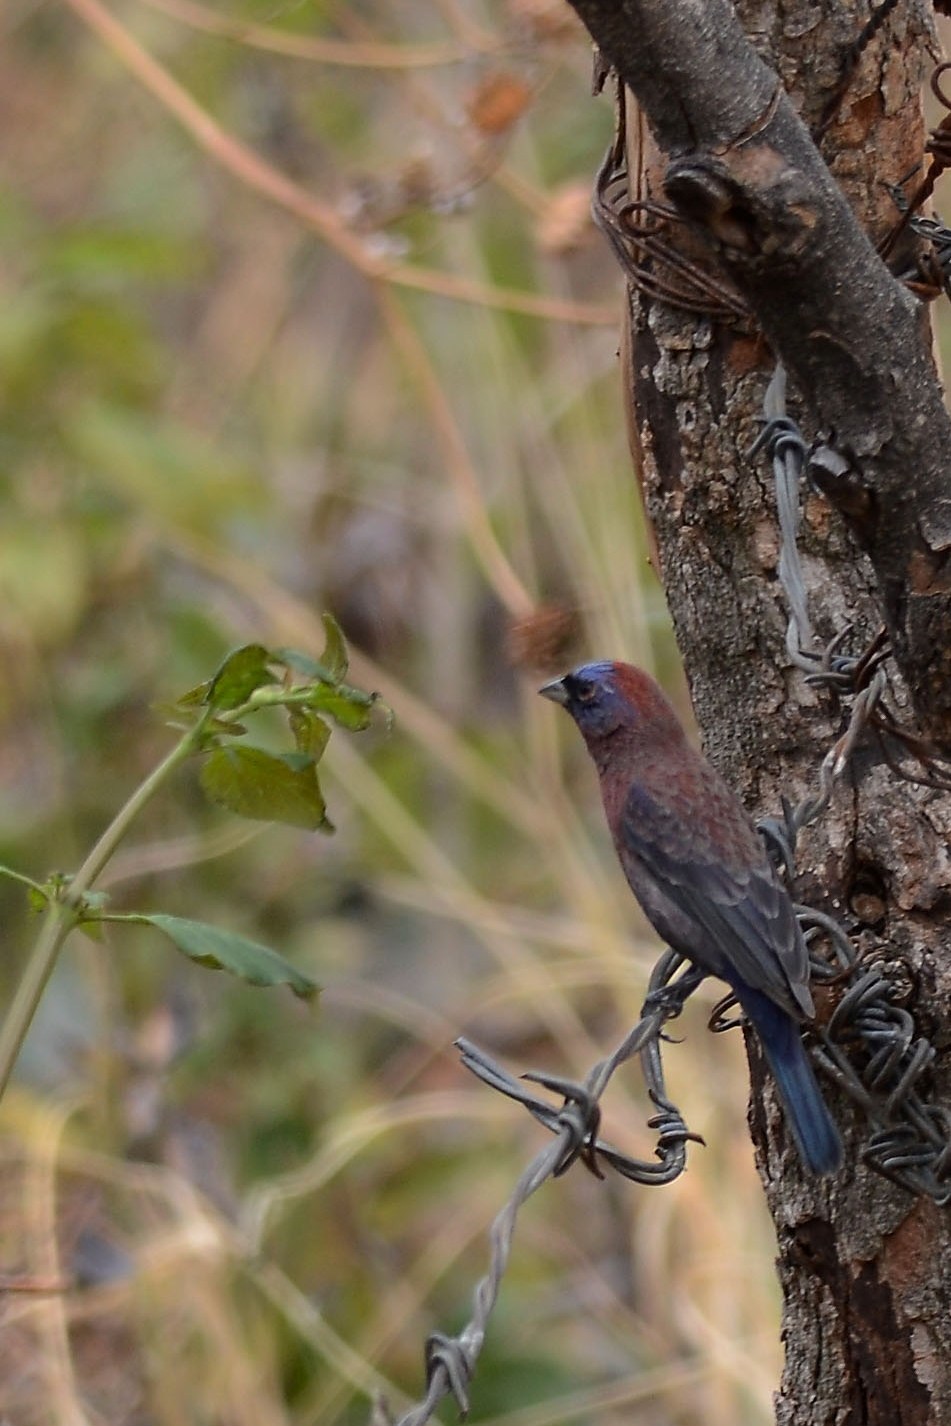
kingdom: Animalia
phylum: Chordata
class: Aves
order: Passeriformes
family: Cardinalidae
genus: Passerina
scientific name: Passerina versicolor
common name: Varied bunting
